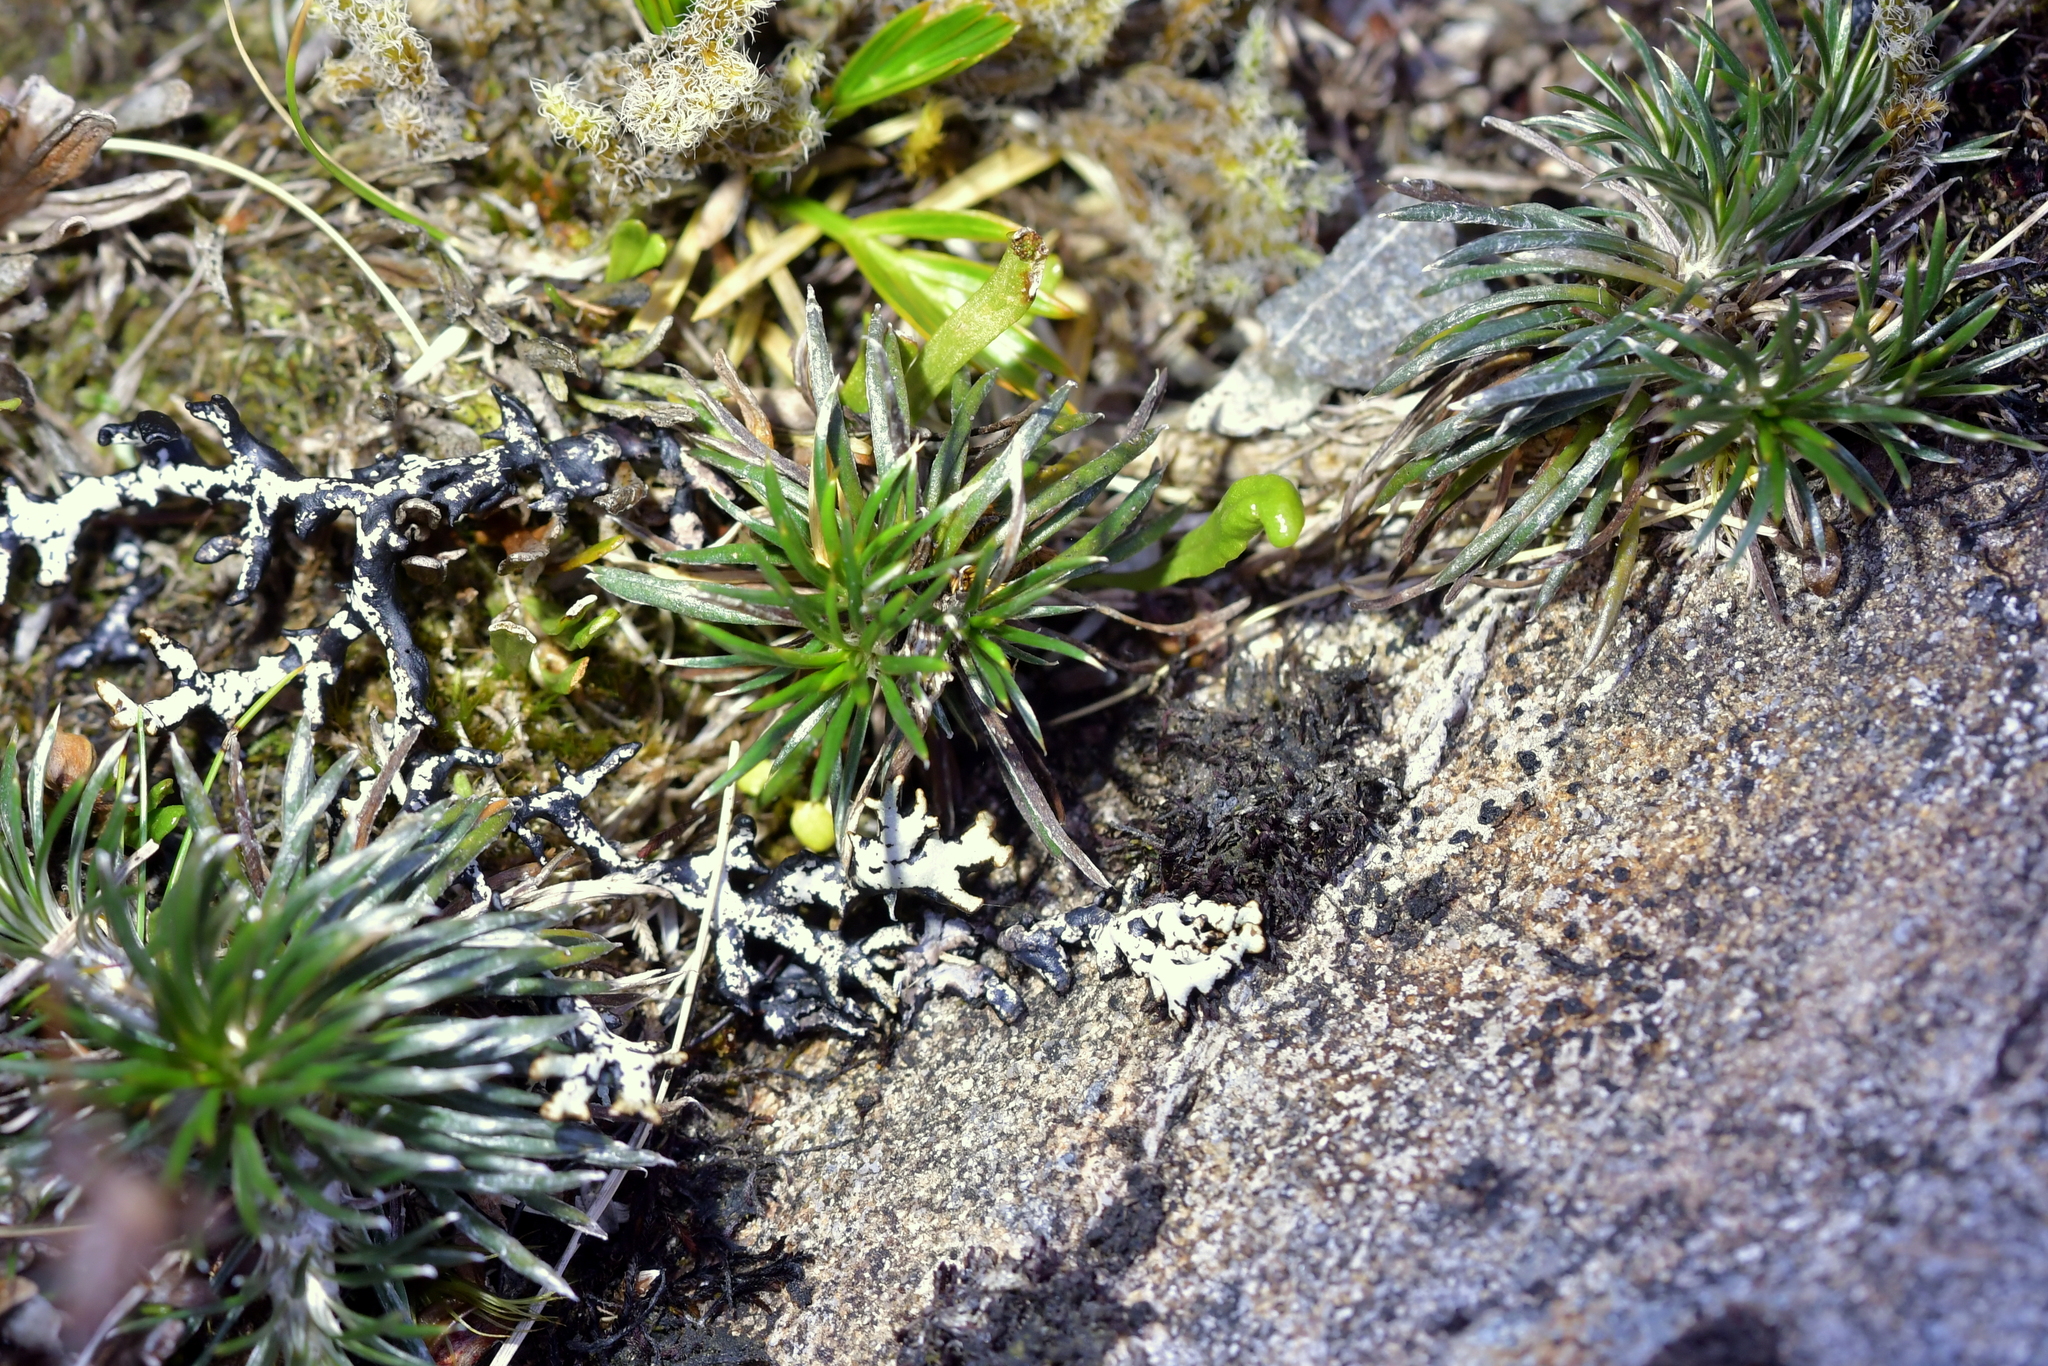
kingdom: Plantae
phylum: Tracheophyta
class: Magnoliopsida
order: Asterales
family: Asteraceae
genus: Celmisia
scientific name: Celmisia laricifolia
